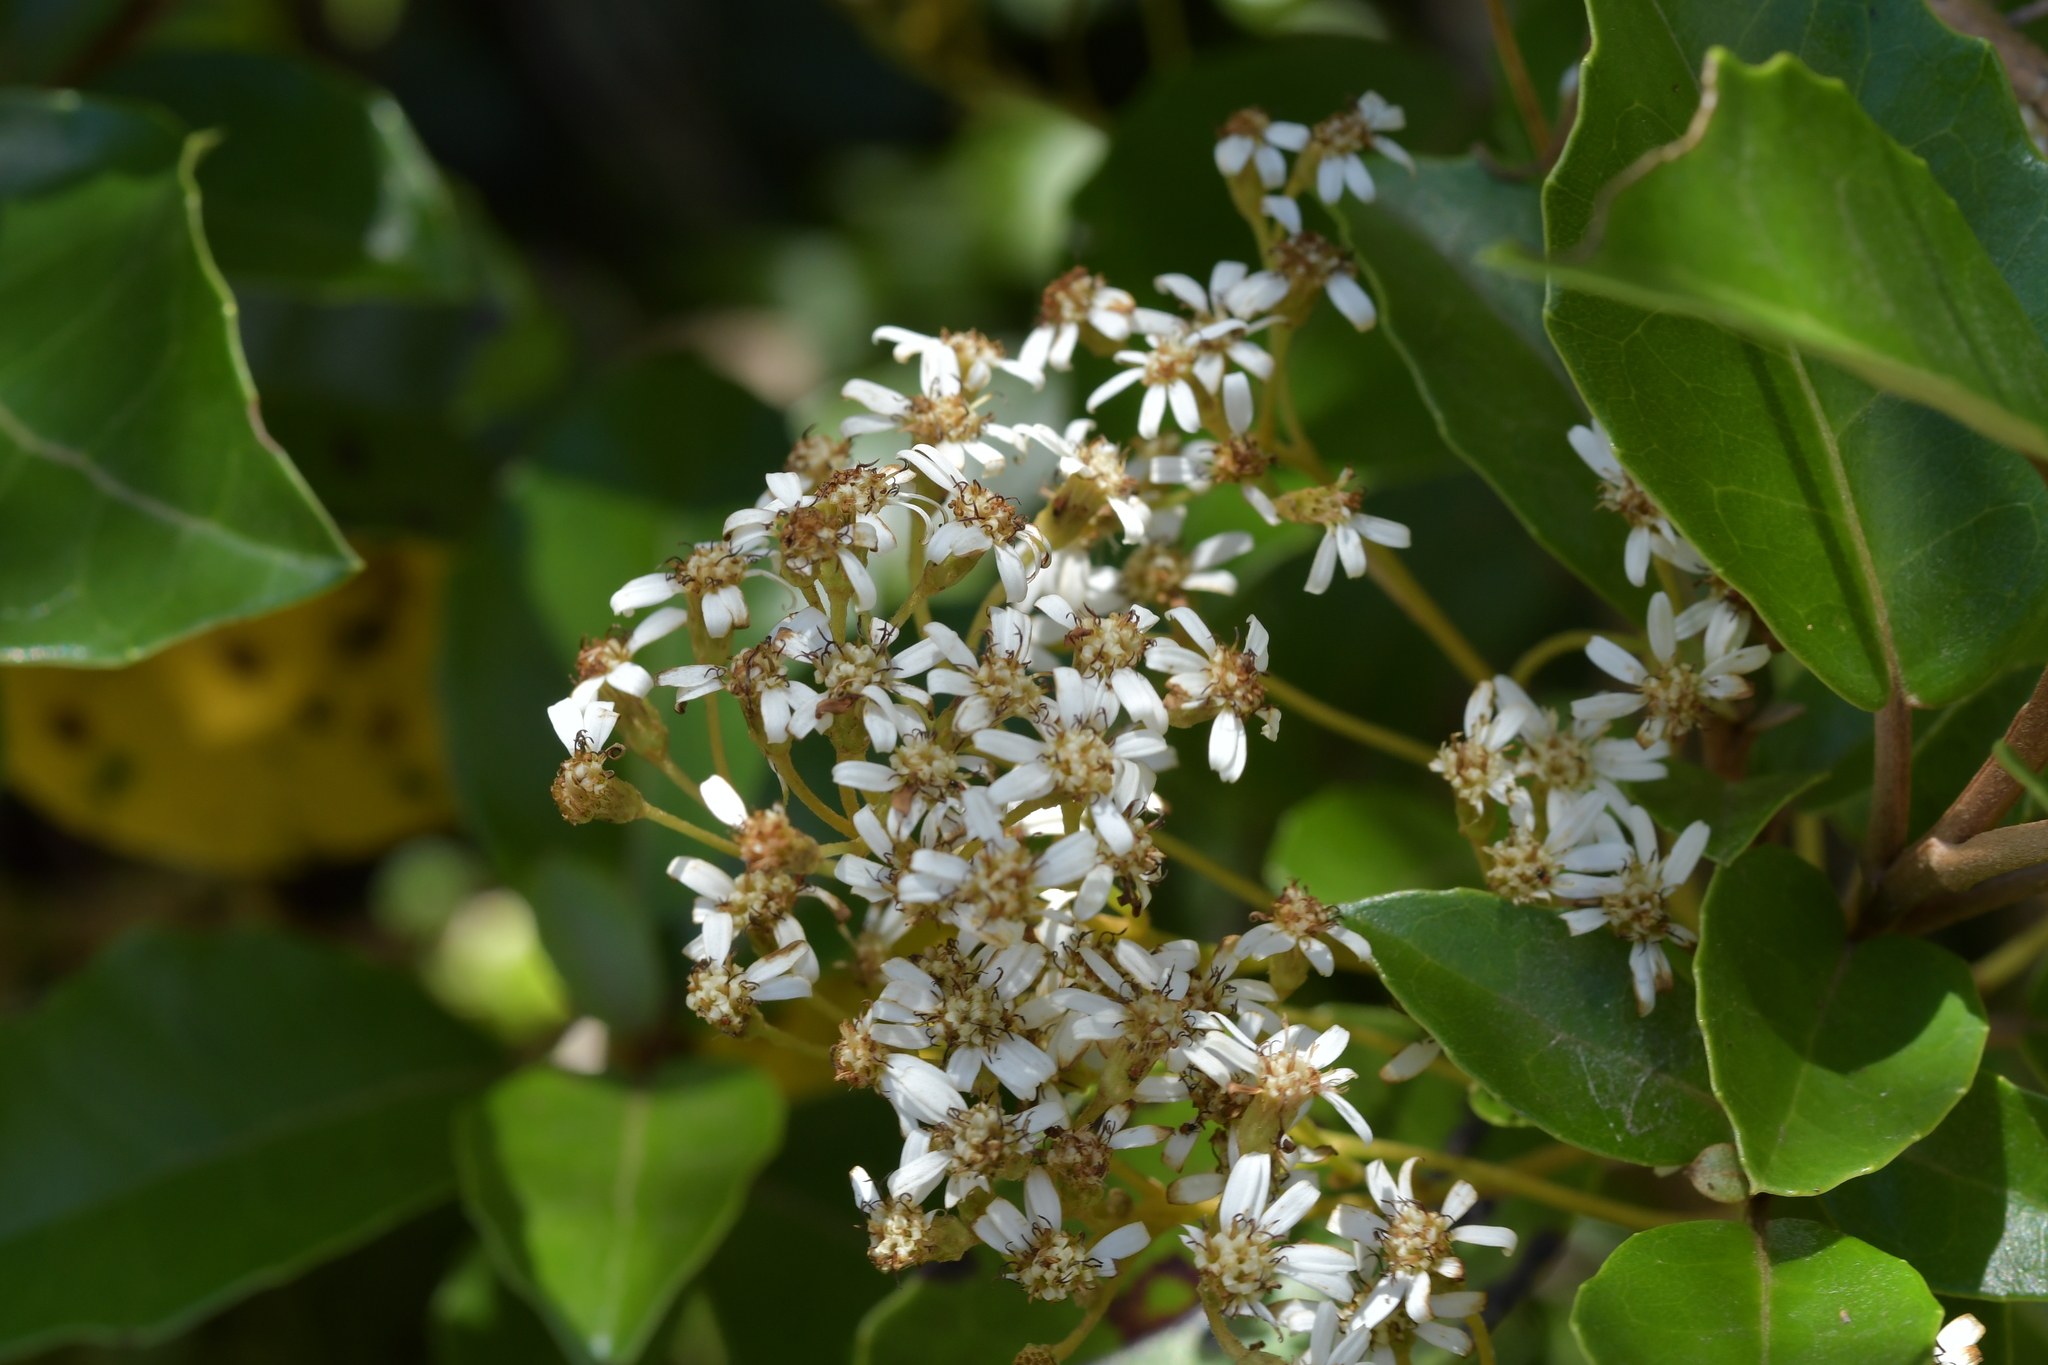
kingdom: Plantae
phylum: Tracheophyta
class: Magnoliopsida
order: Asterales
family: Asteraceae
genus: Olearia
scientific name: Olearia arborescens
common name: Glossy tree daisy
